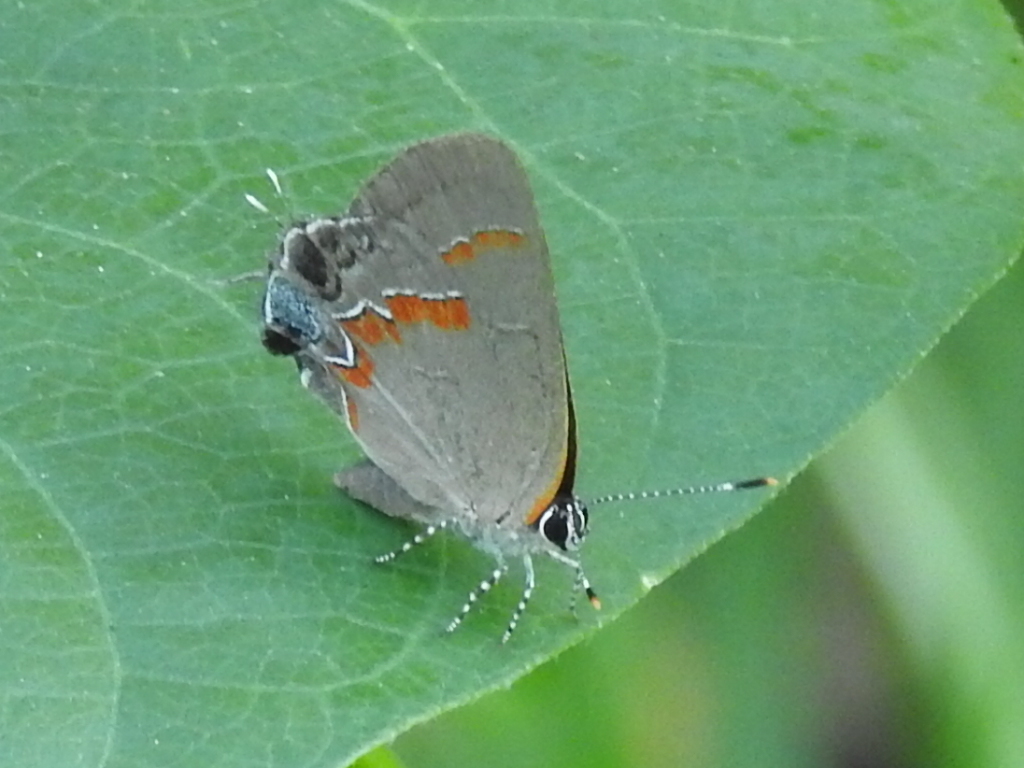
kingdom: Animalia
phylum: Arthropoda
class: Insecta
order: Lepidoptera
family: Lycaenidae
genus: Calycopis
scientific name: Calycopis cecrops
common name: Red-banded hairstreak
